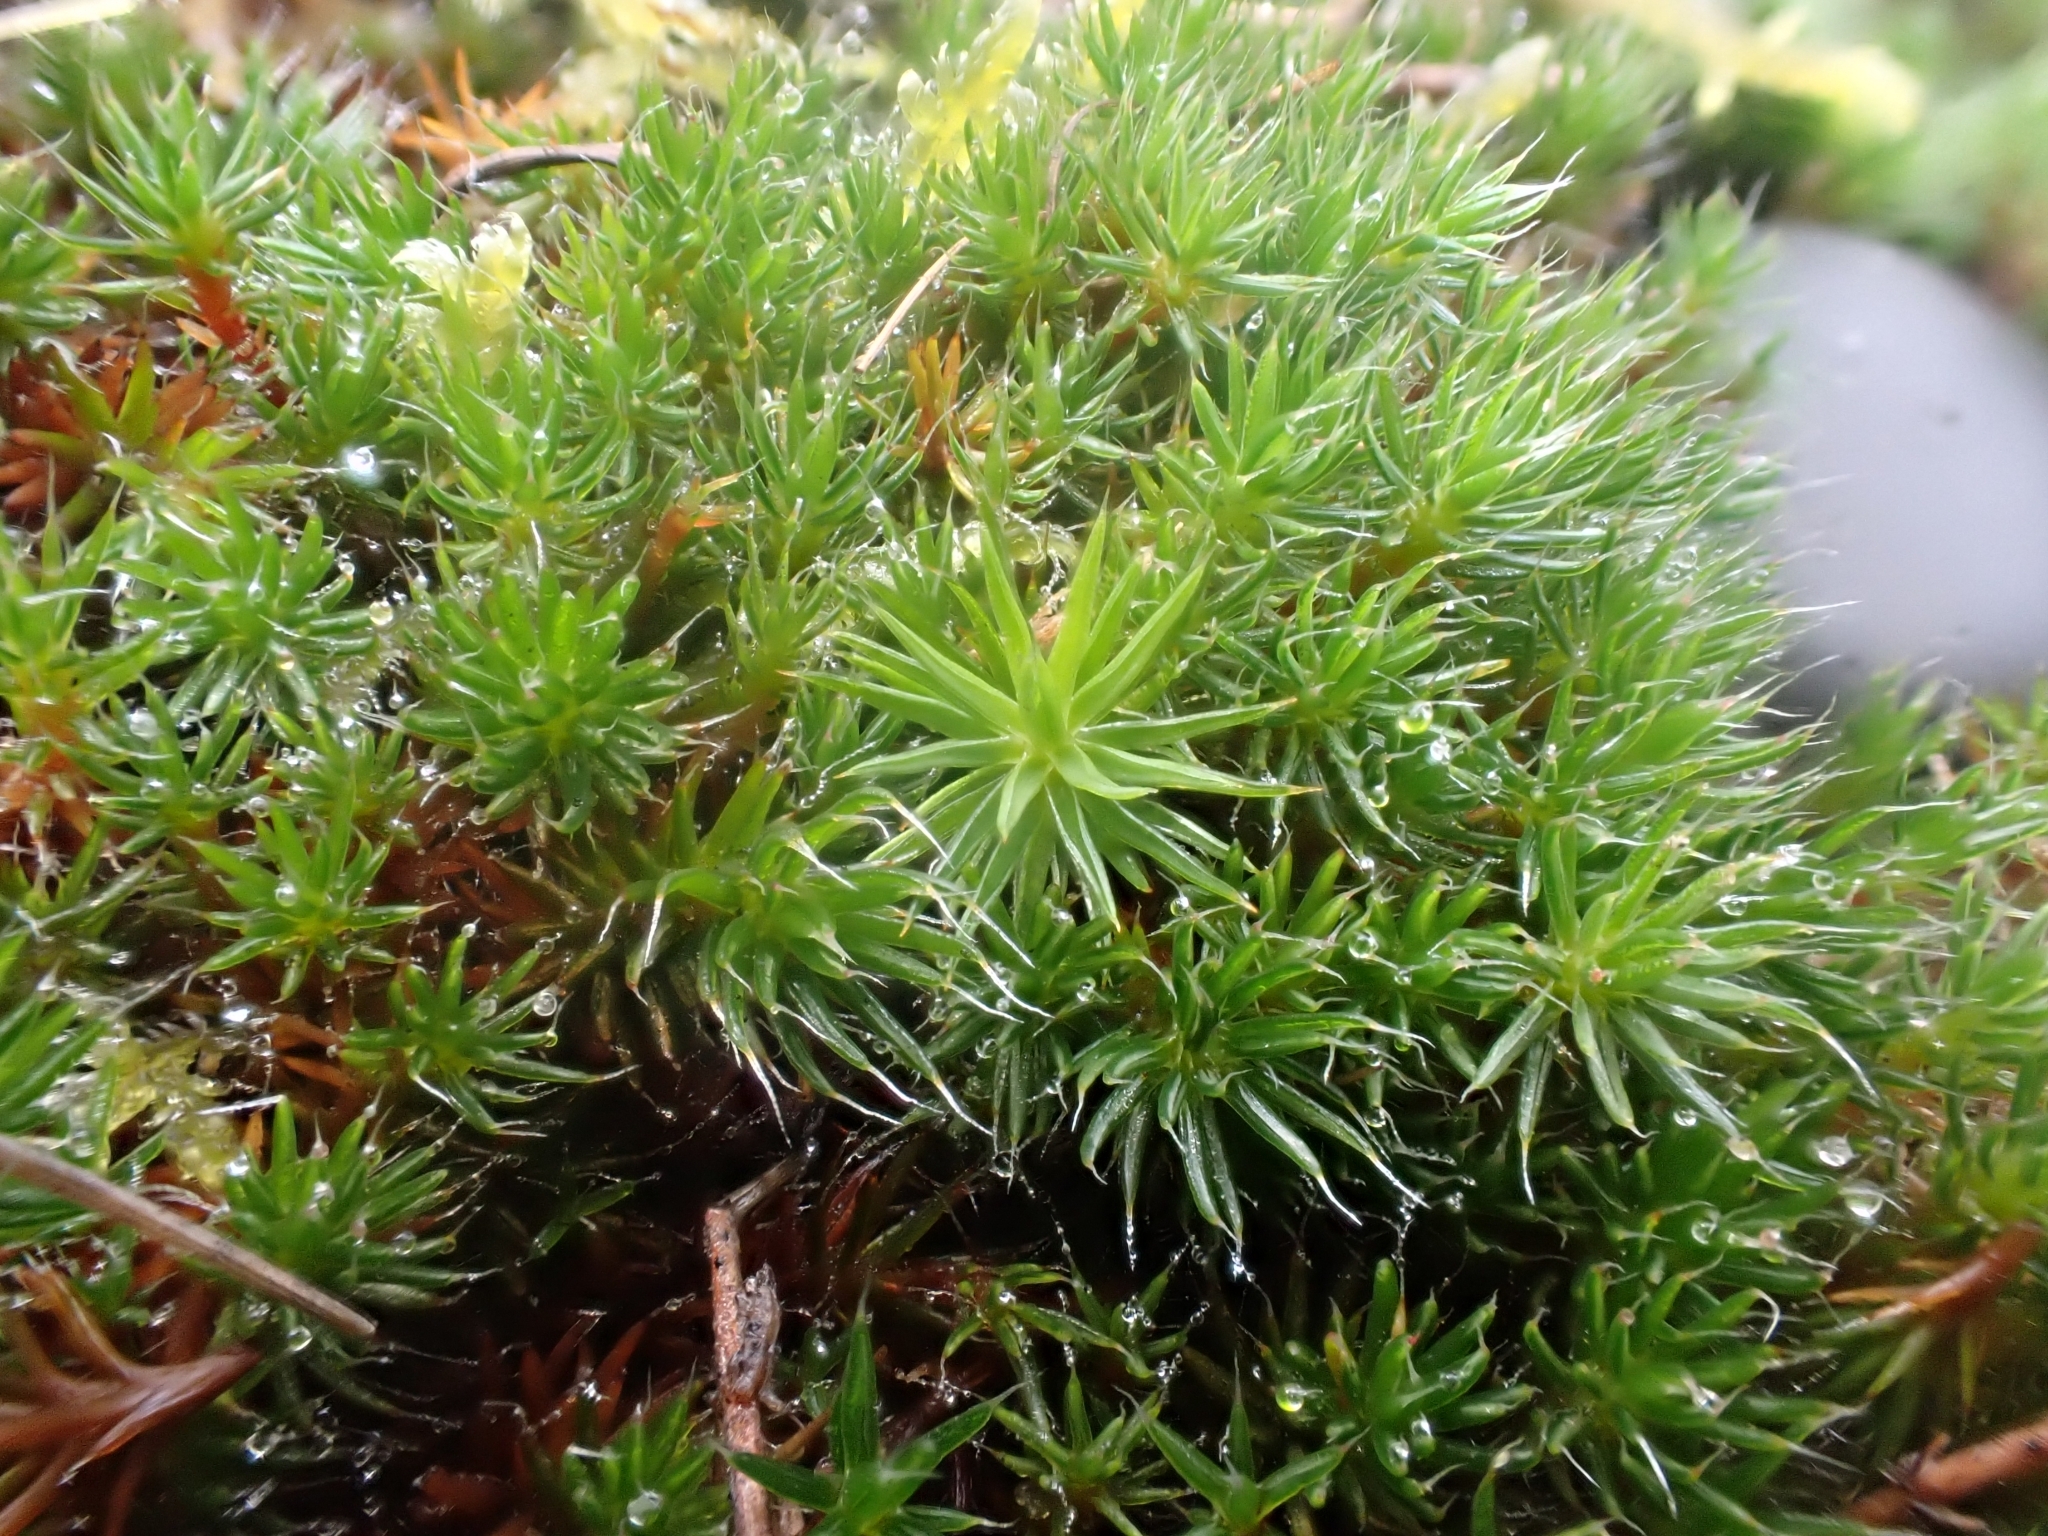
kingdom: Plantae
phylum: Bryophyta
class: Polytrichopsida
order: Polytrichales
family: Polytrichaceae
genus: Polytrichum
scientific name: Polytrichum piliferum
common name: Bristly haircap
